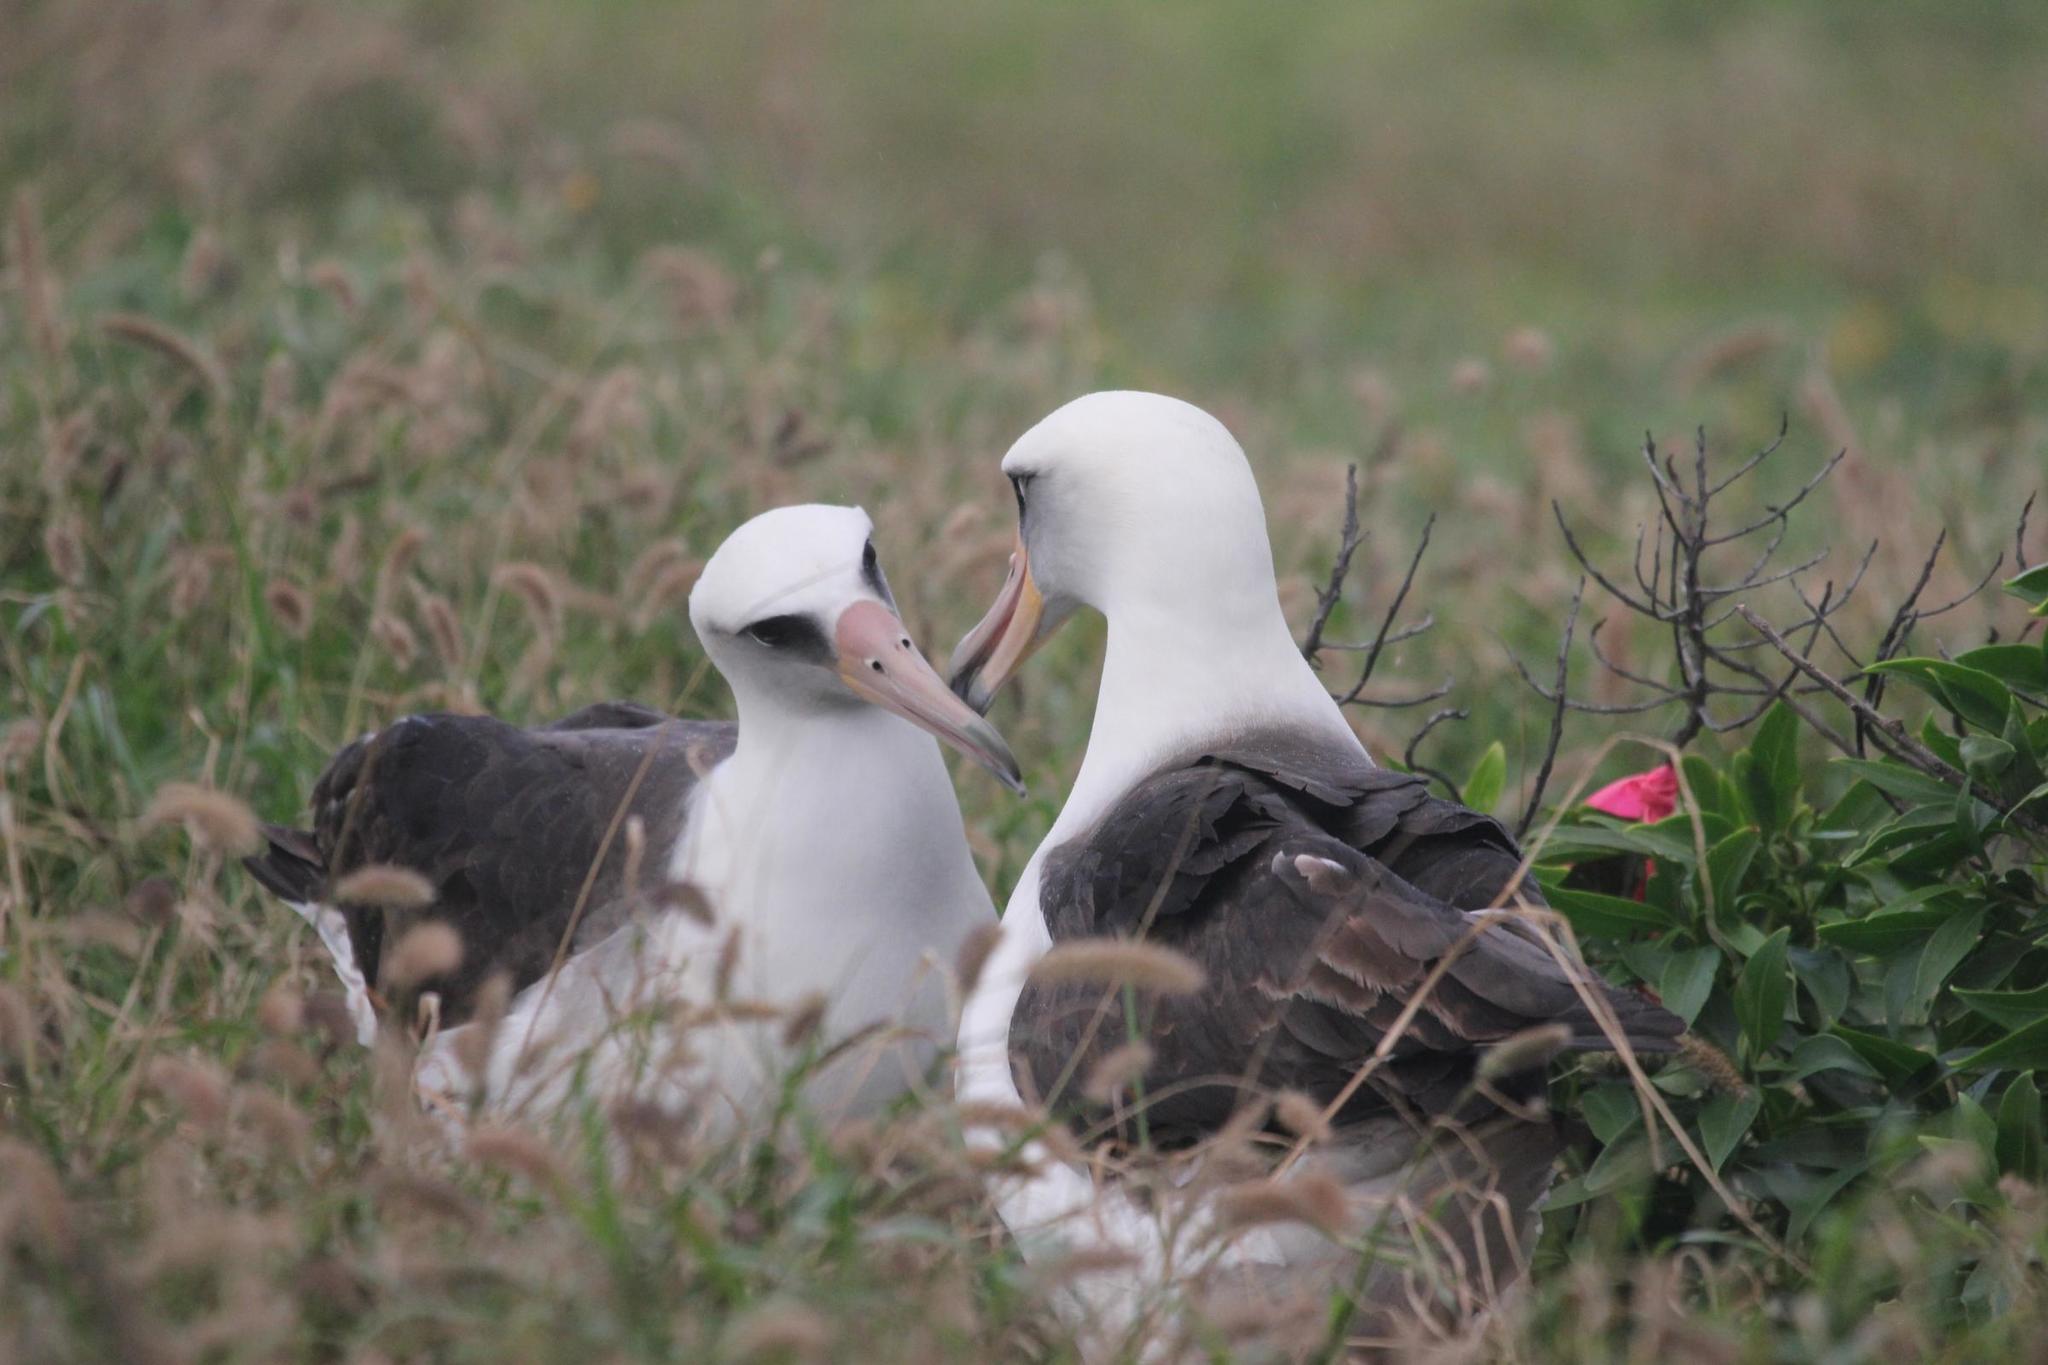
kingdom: Animalia
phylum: Chordata
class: Aves
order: Procellariiformes
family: Diomedeidae
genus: Phoebastria
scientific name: Phoebastria immutabilis
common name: Laysan albatross
